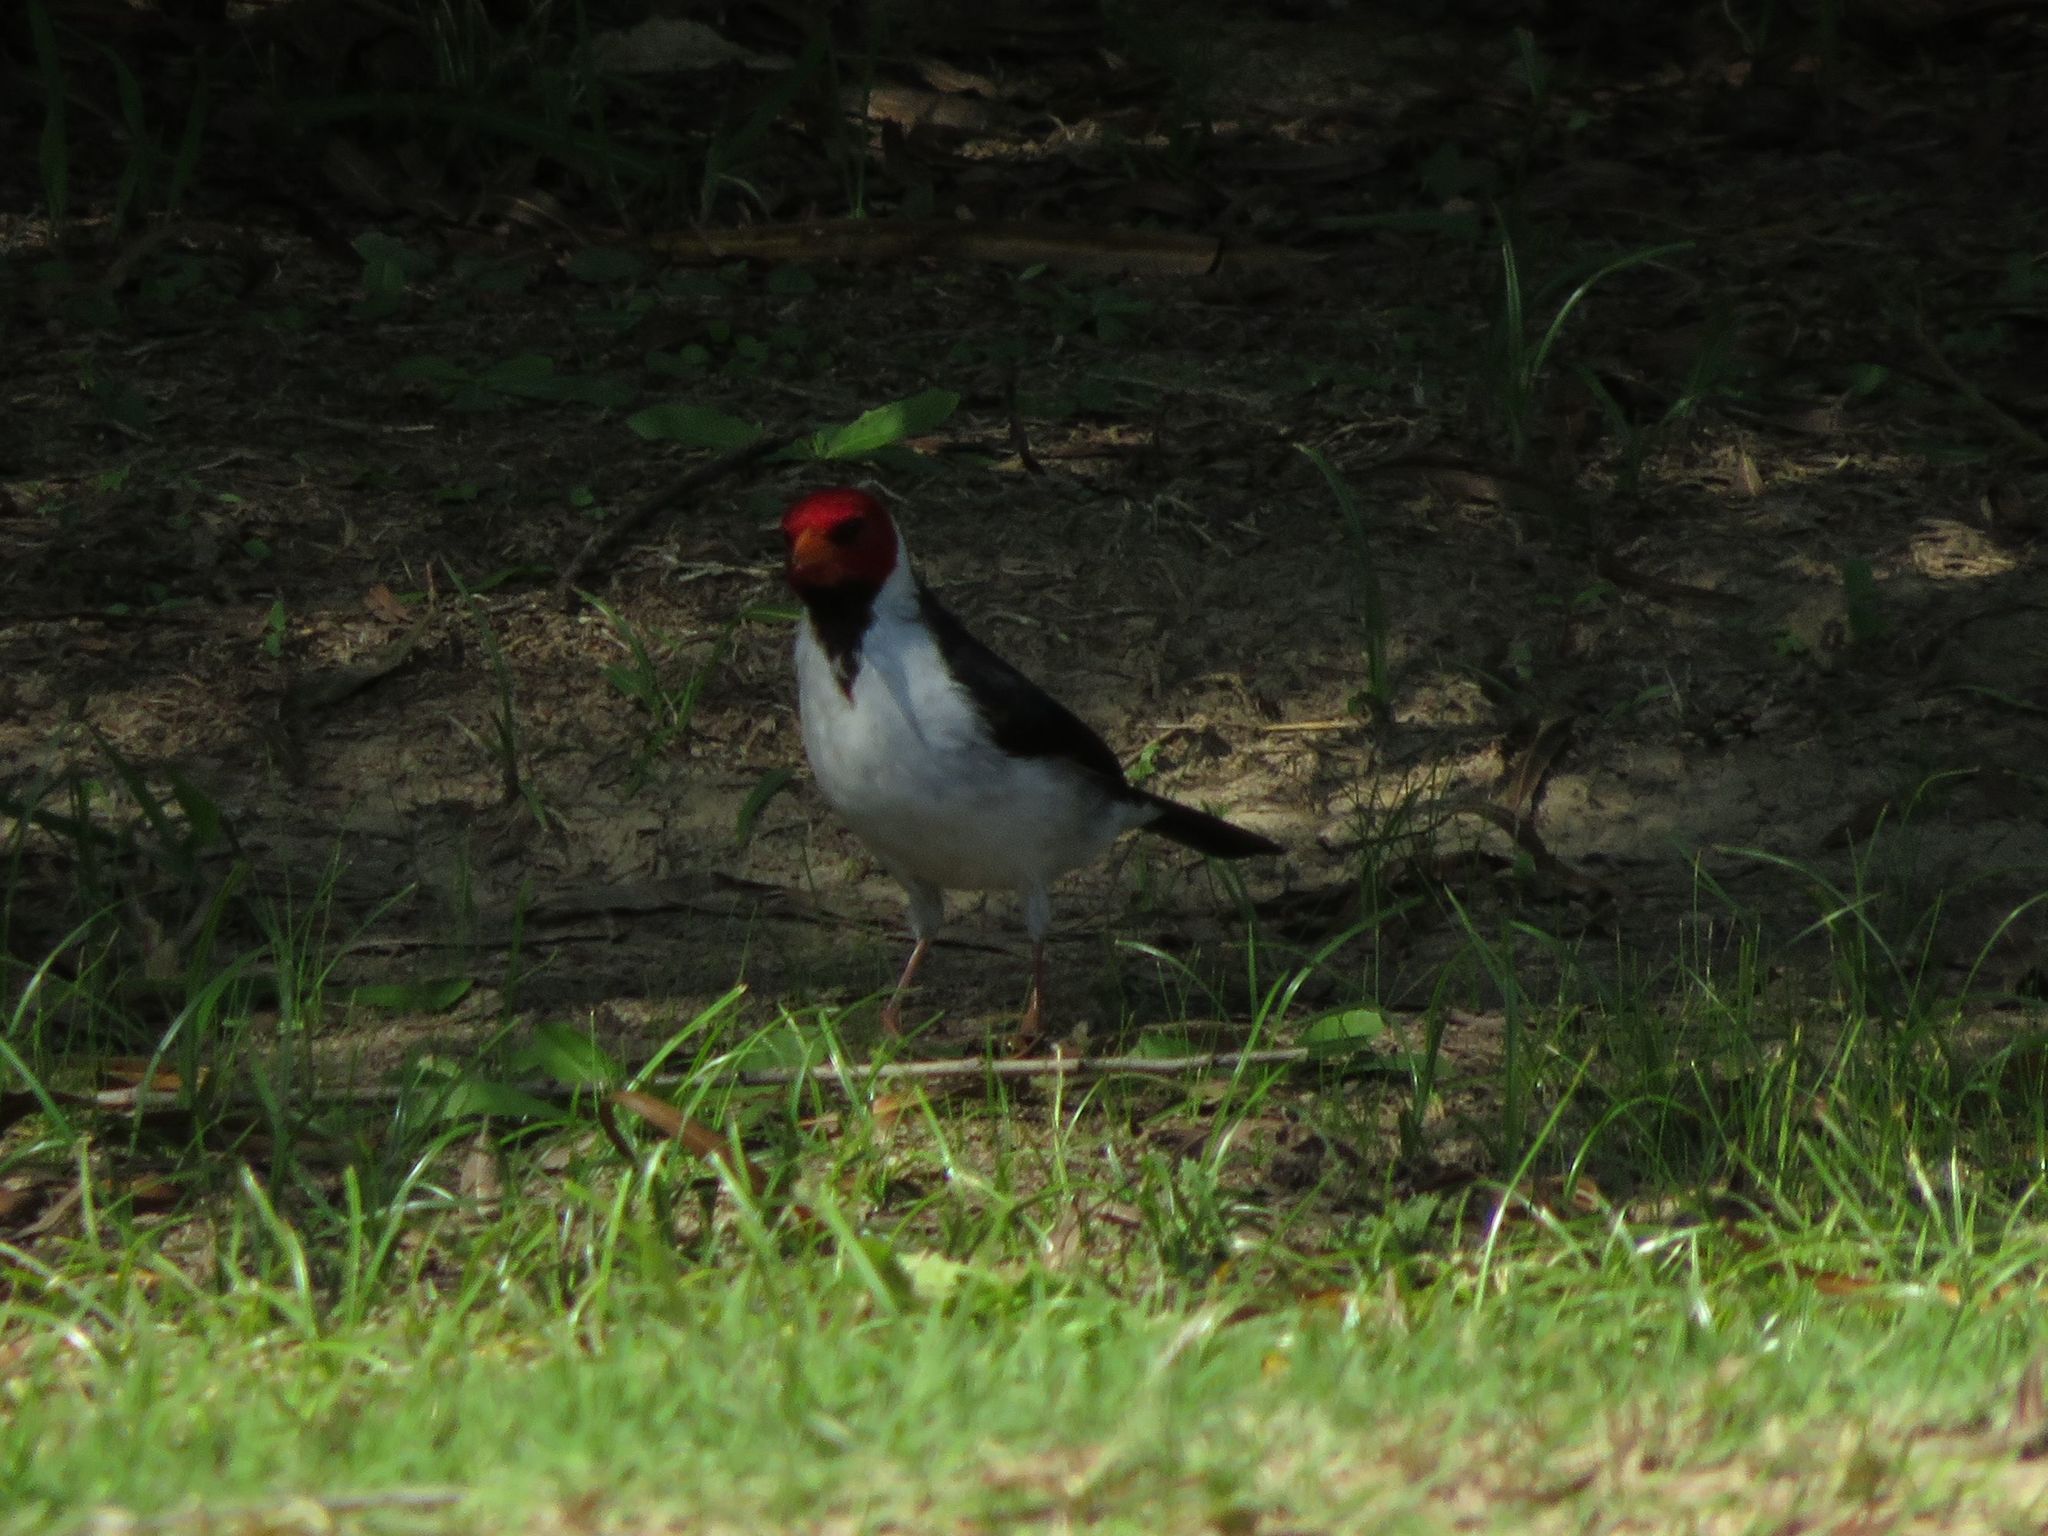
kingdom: Animalia
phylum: Chordata
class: Aves
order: Passeriformes
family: Thraupidae
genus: Paroaria
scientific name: Paroaria capitata
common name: Yellow-billed cardinal
